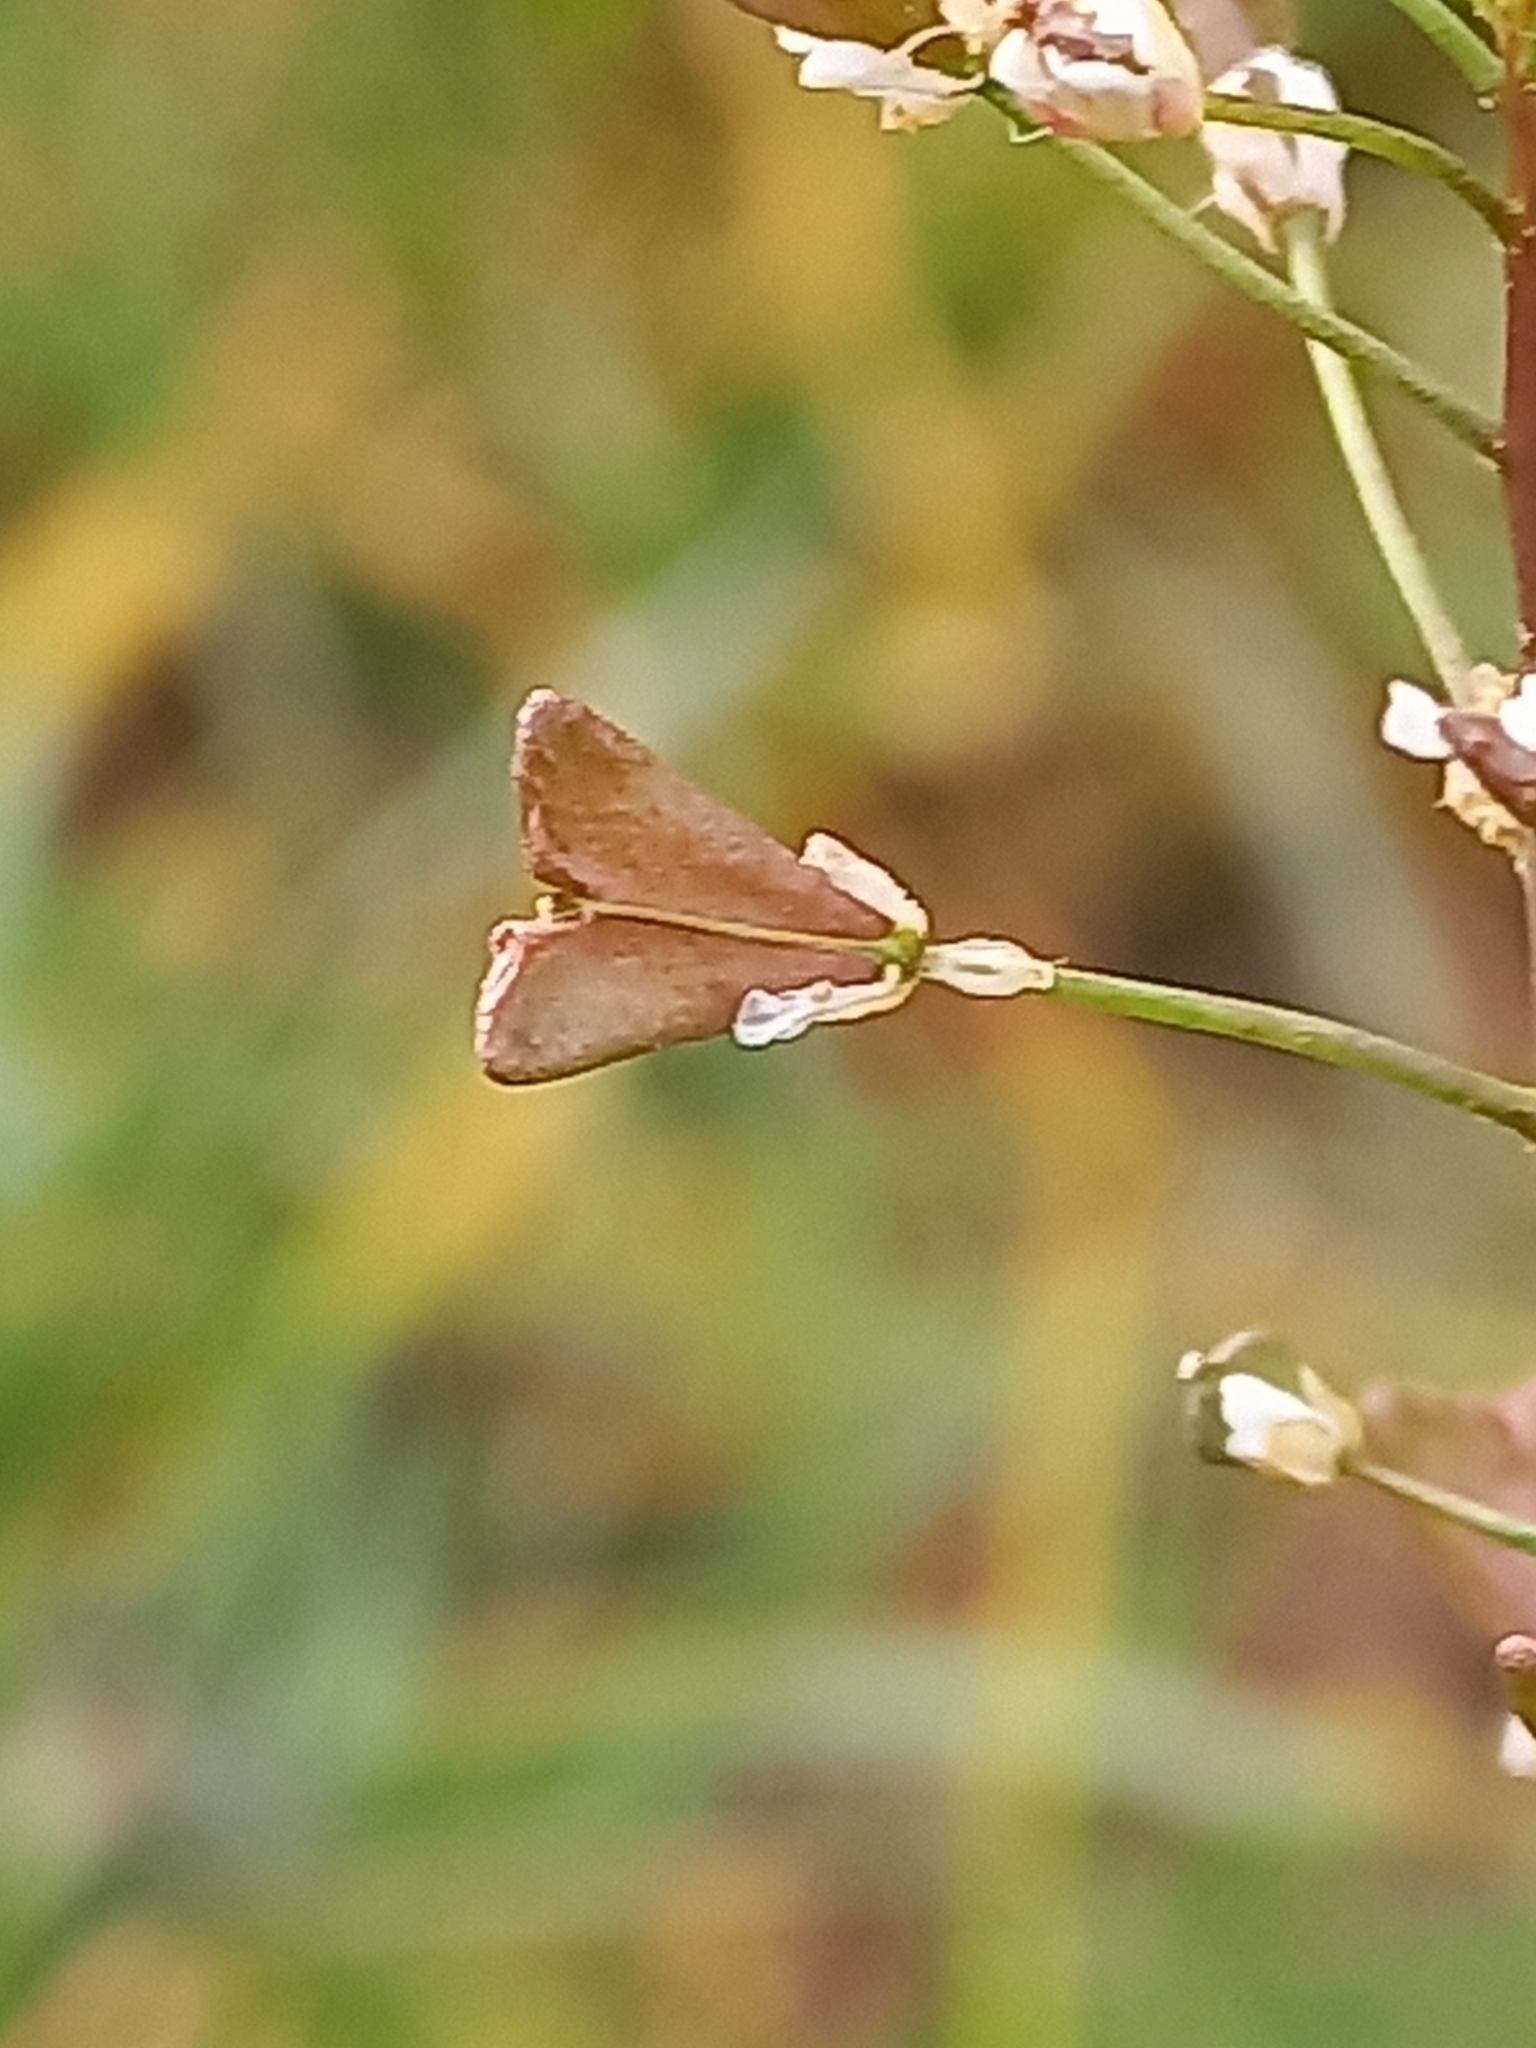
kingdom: Plantae
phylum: Tracheophyta
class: Magnoliopsida
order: Brassicales
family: Brassicaceae
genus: Capsella
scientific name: Capsella bursa-pastoris
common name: Shepherd's purse
